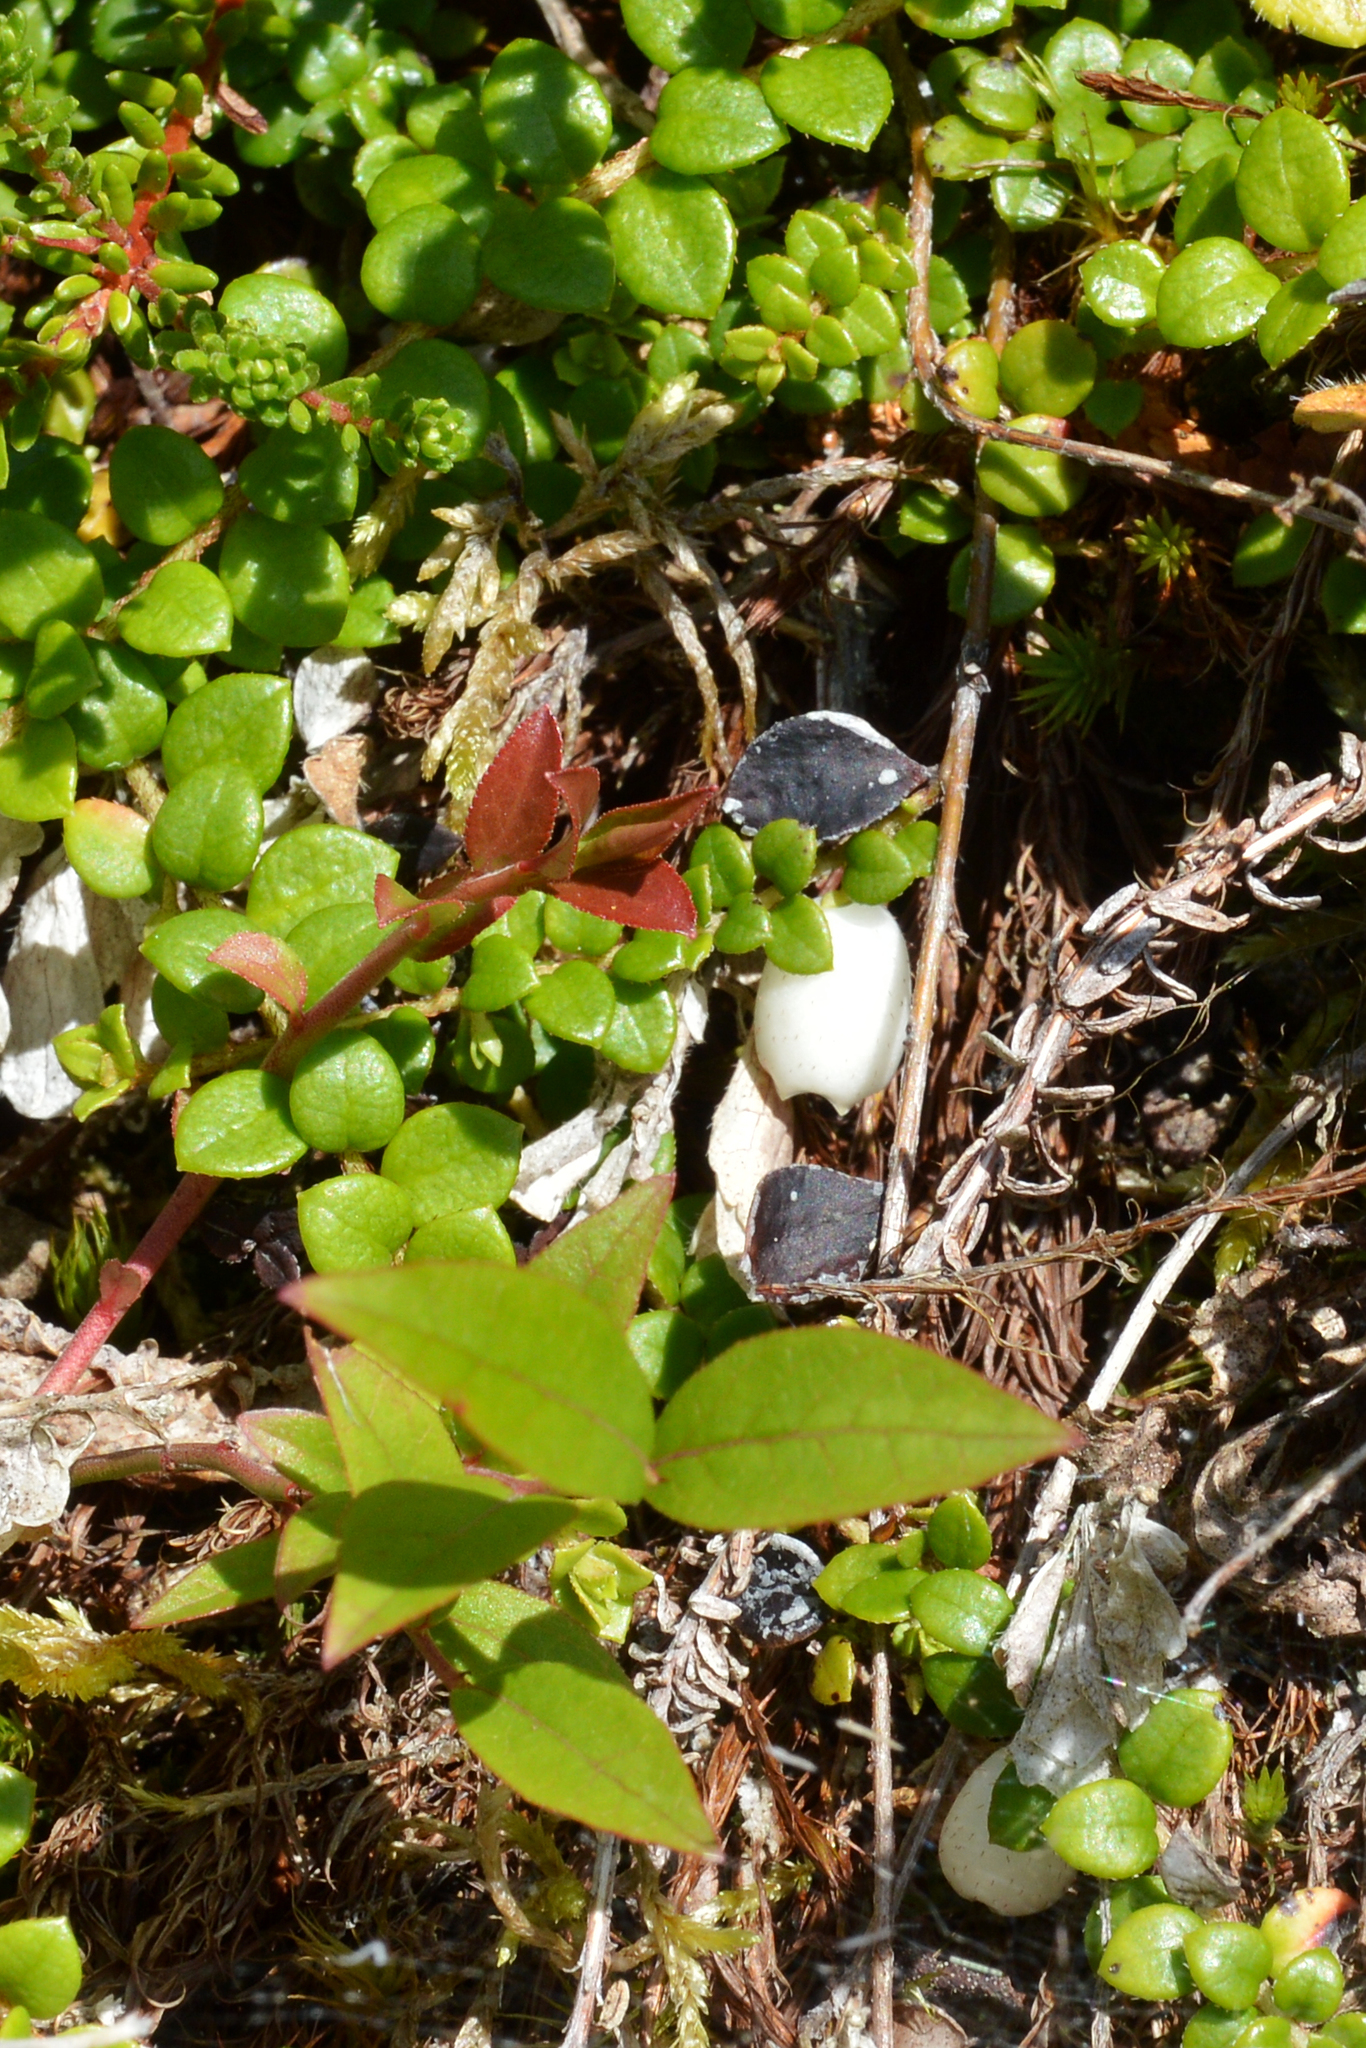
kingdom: Plantae
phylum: Tracheophyta
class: Magnoliopsida
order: Ericales
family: Ericaceae
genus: Gaultheria
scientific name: Gaultheria hispidula
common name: Cancer wintergreen
